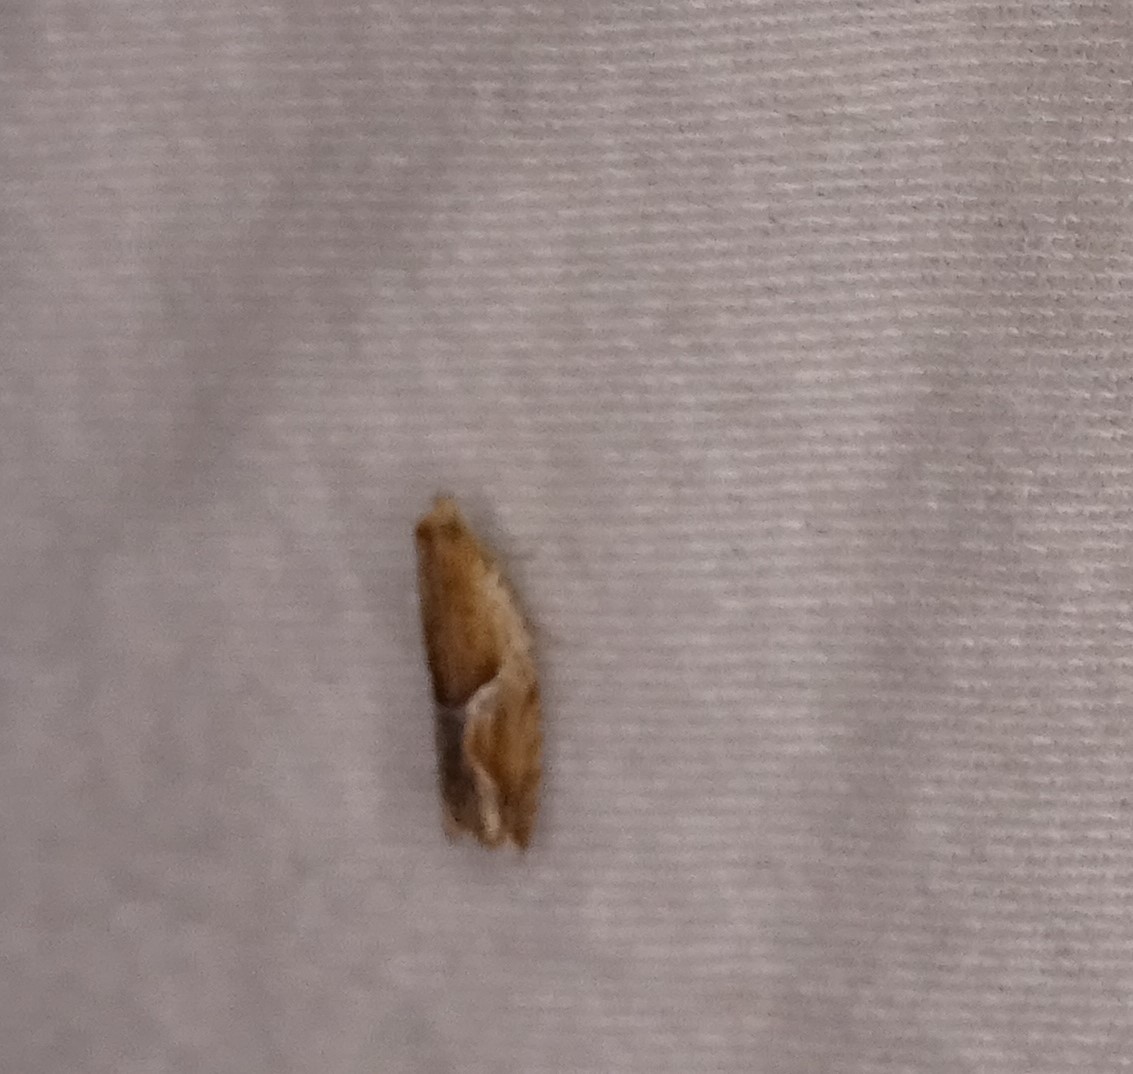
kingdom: Animalia
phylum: Arthropoda
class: Insecta
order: Lepidoptera
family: Tortricidae
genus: Ancylis
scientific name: Ancylis comptana
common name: Little roller
